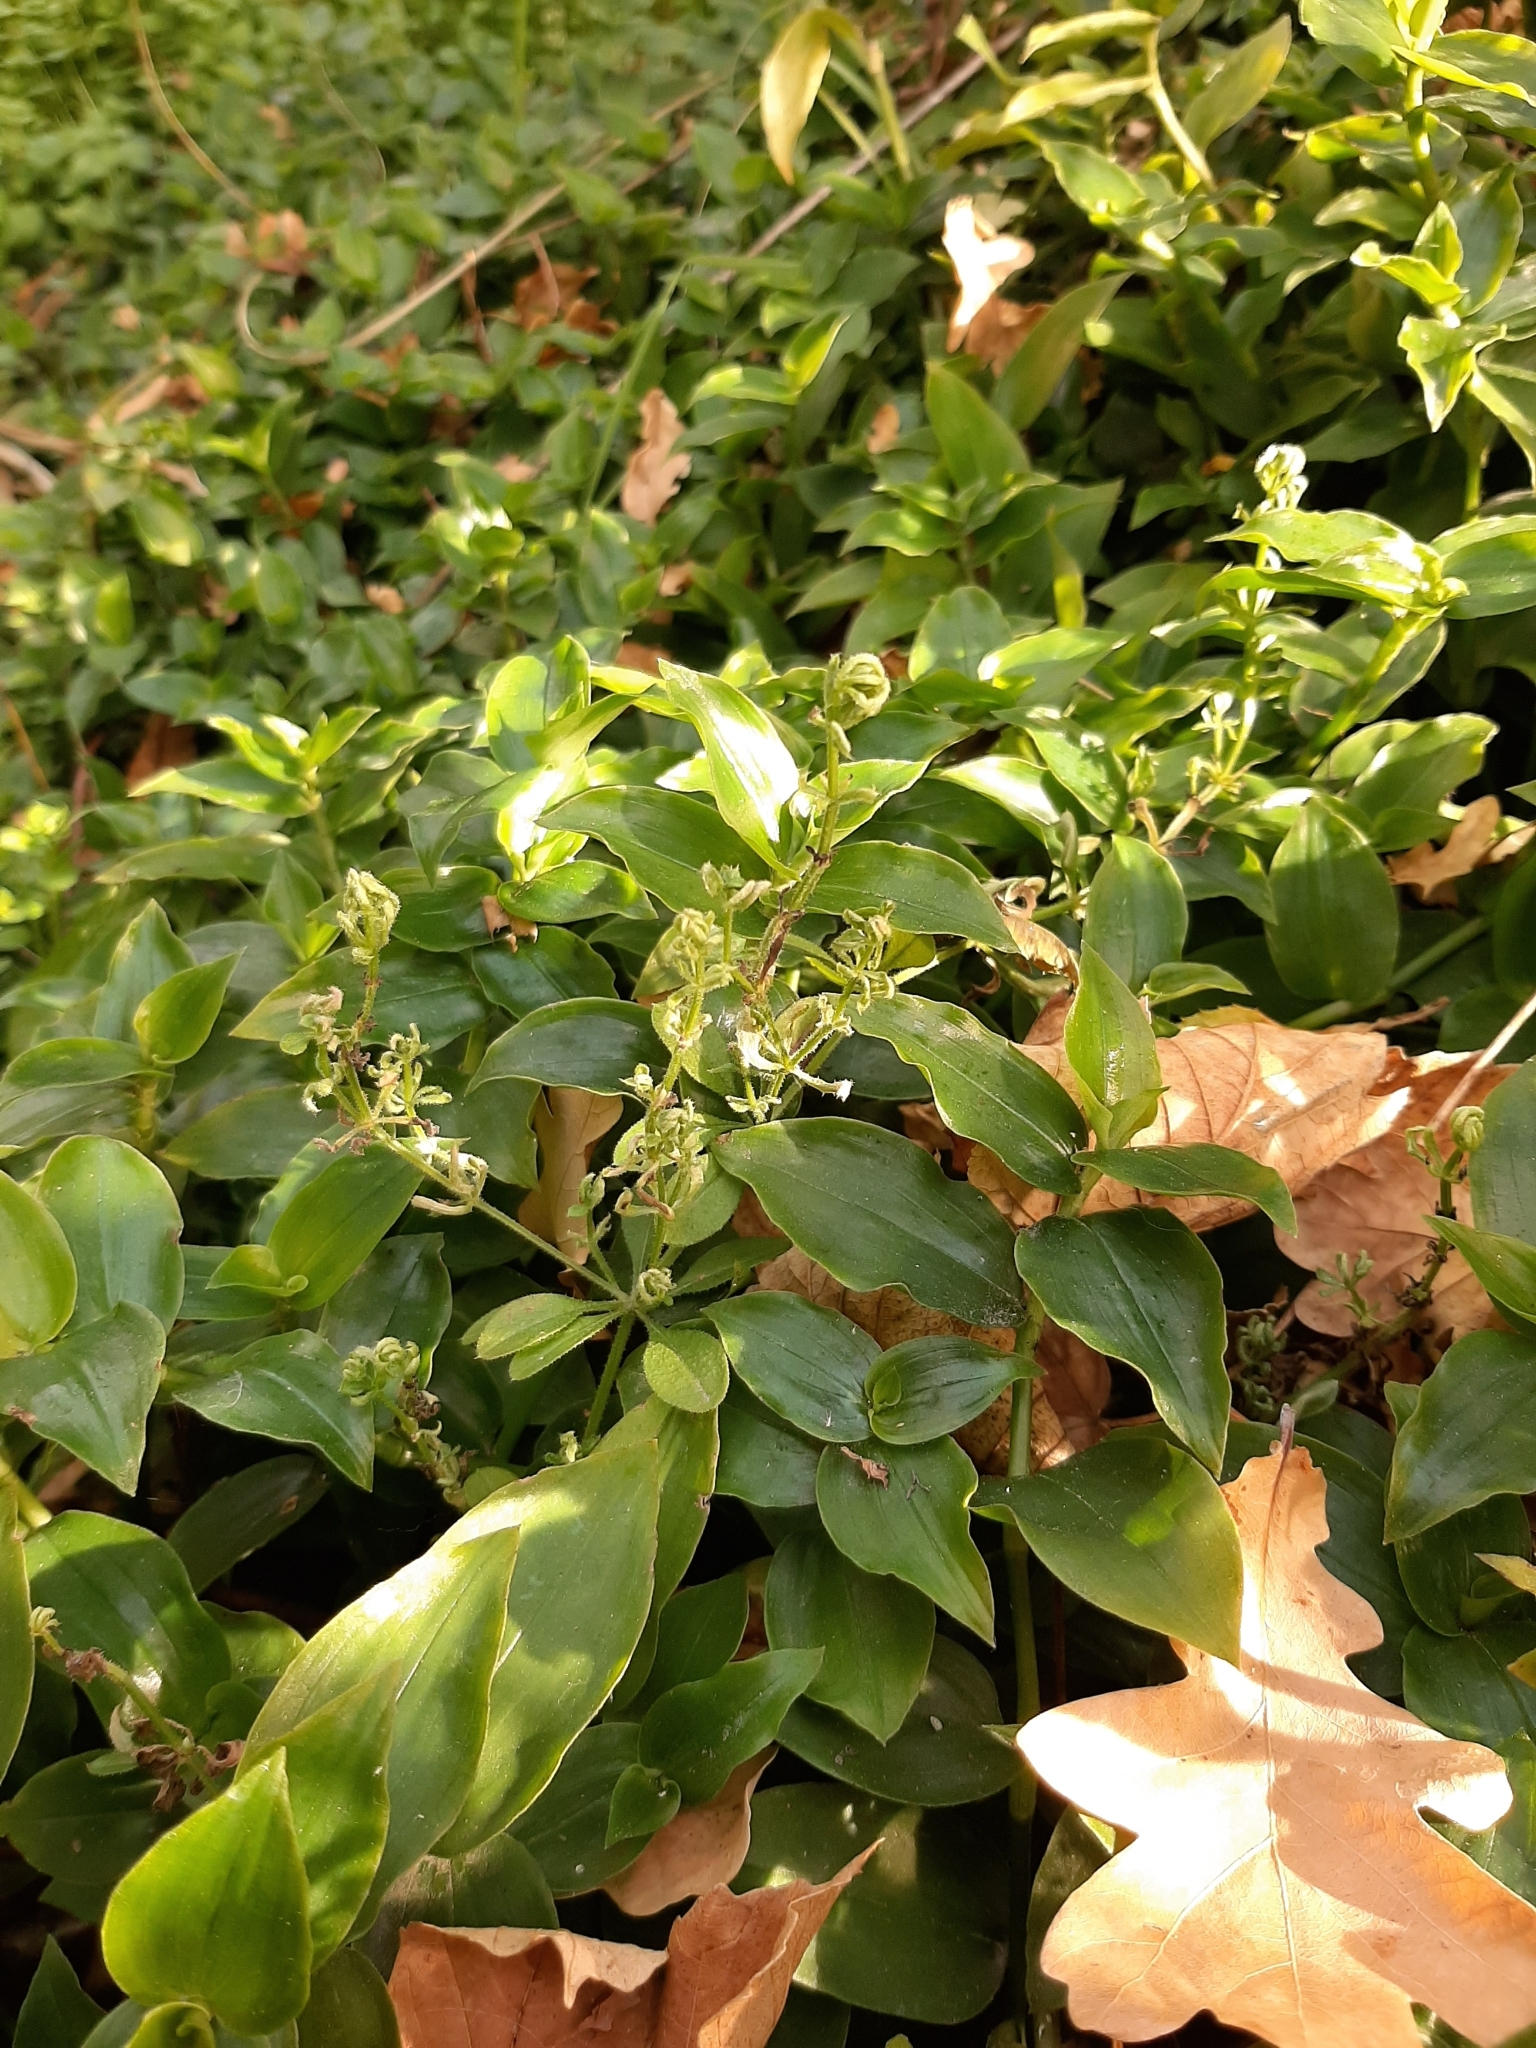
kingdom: Plantae
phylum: Tracheophyta
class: Liliopsida
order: Commelinales
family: Commelinaceae
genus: Tradescantia
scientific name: Tradescantia fluminensis
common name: Wandering-jew
